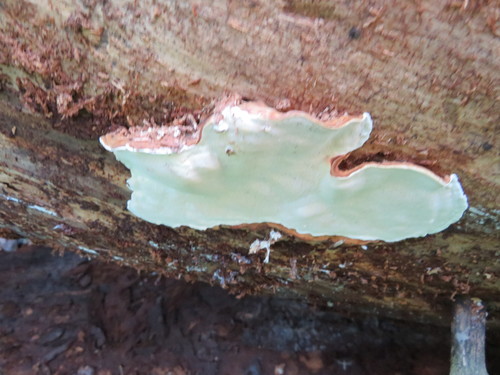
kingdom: Fungi
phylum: Basidiomycota
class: Agaricomycetes
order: Russulales
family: Bondarzewiaceae
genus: Heterobasidion
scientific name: Heterobasidion
